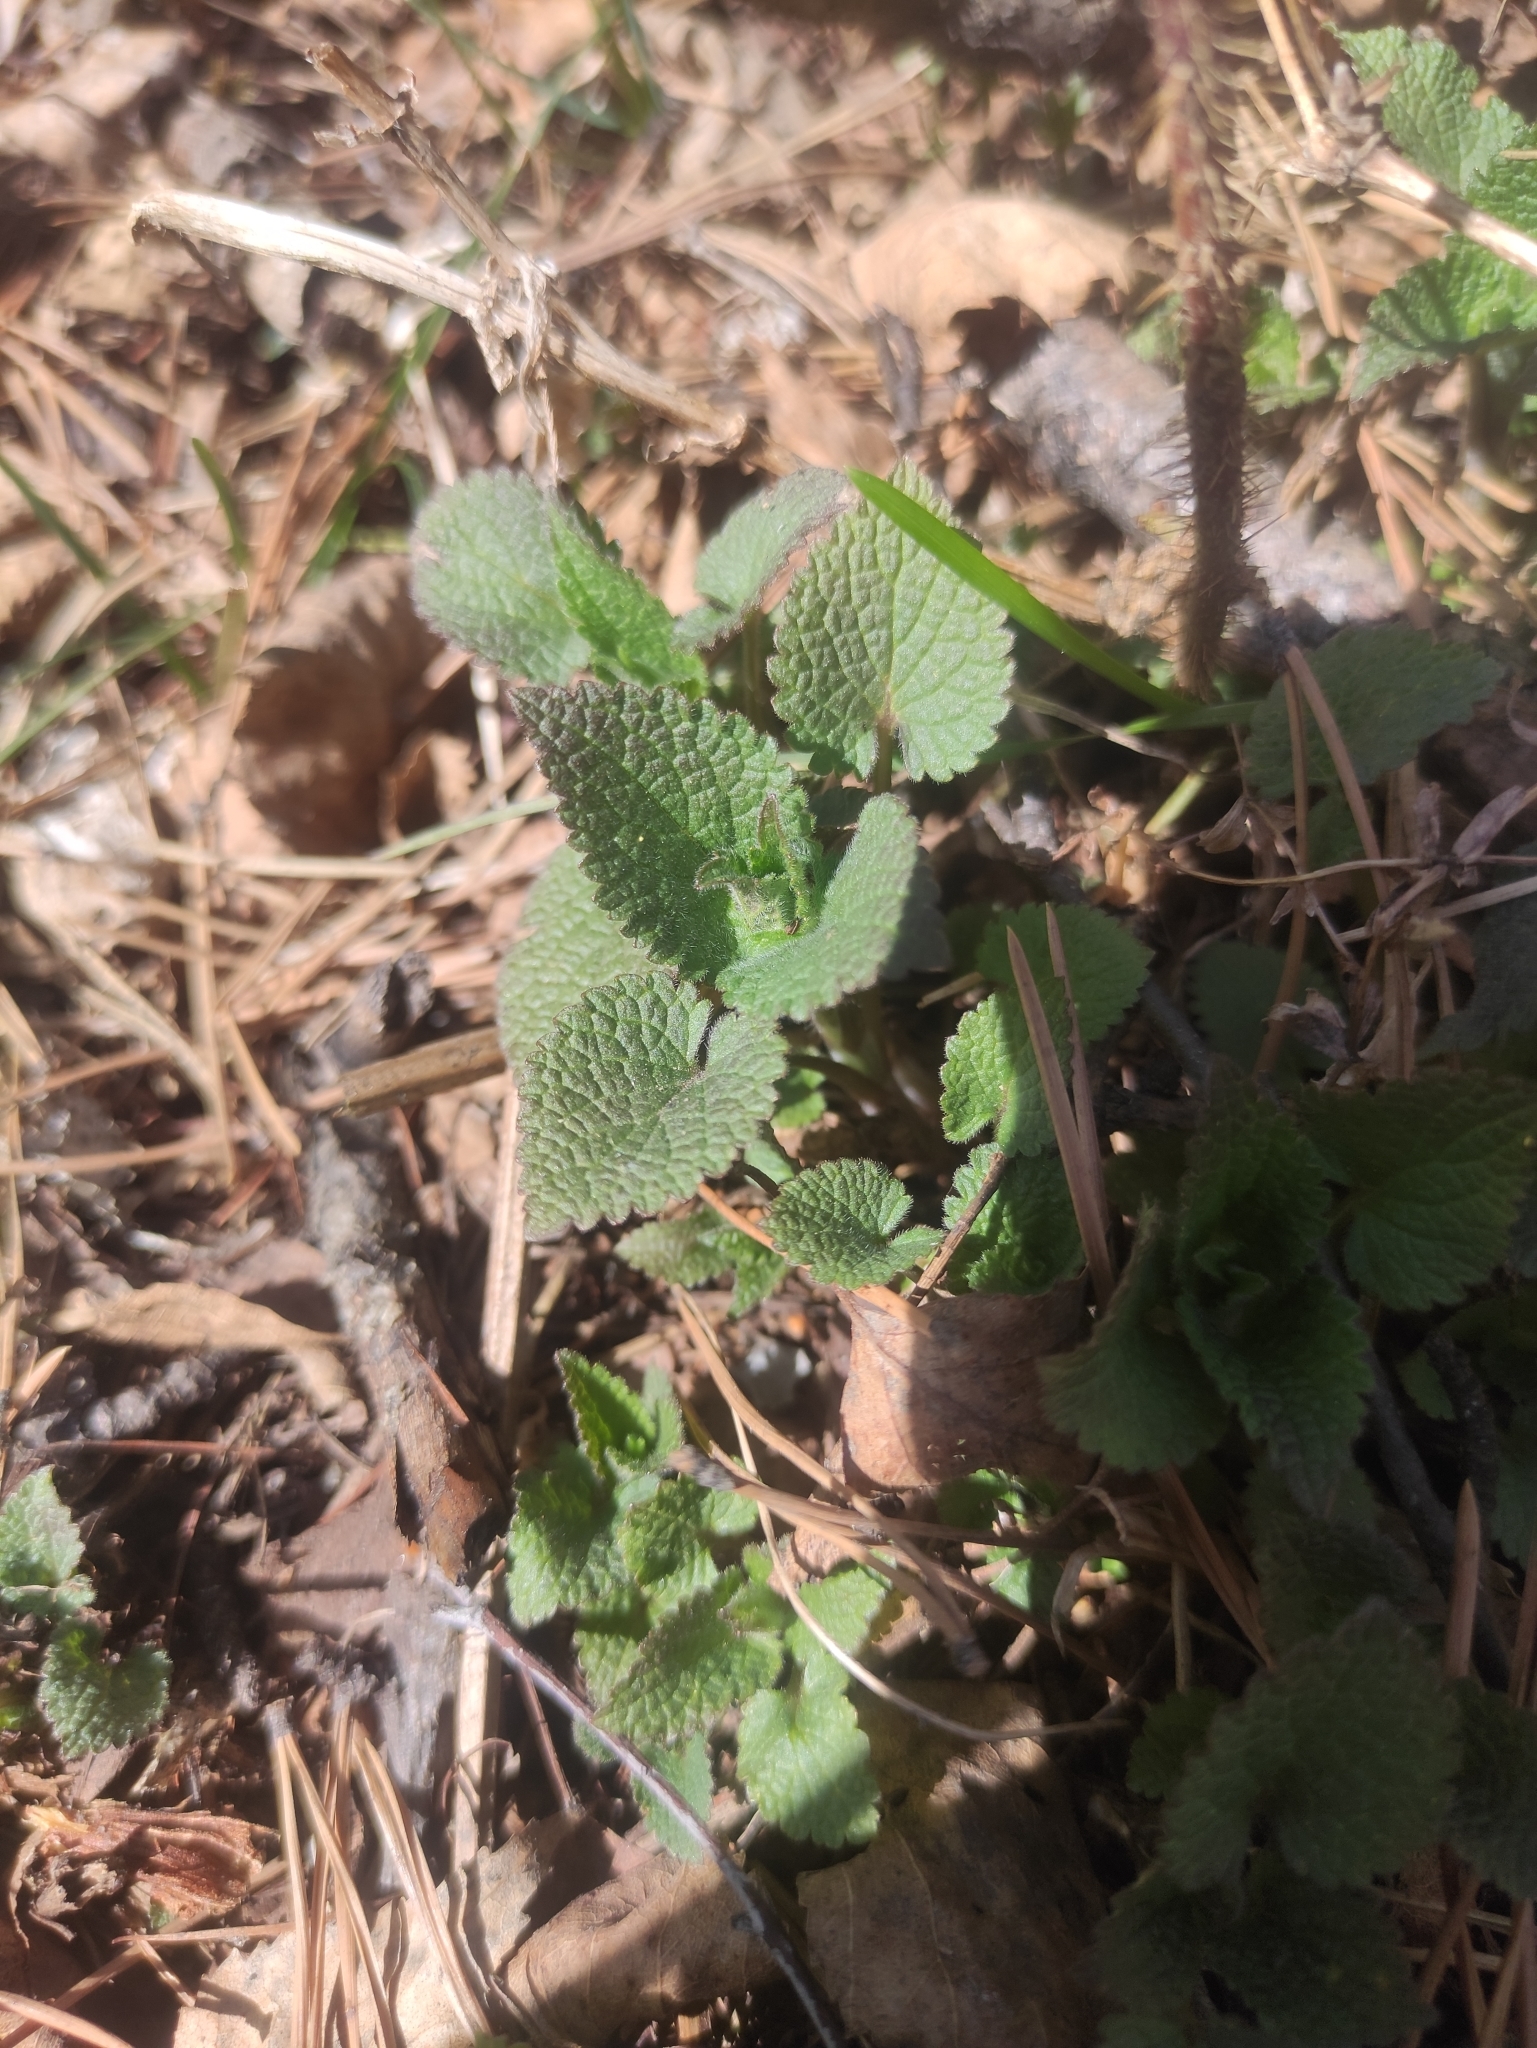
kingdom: Plantae
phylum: Tracheophyta
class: Magnoliopsida
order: Lamiales
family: Lamiaceae
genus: Lamium
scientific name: Lamium album
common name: White dead-nettle
